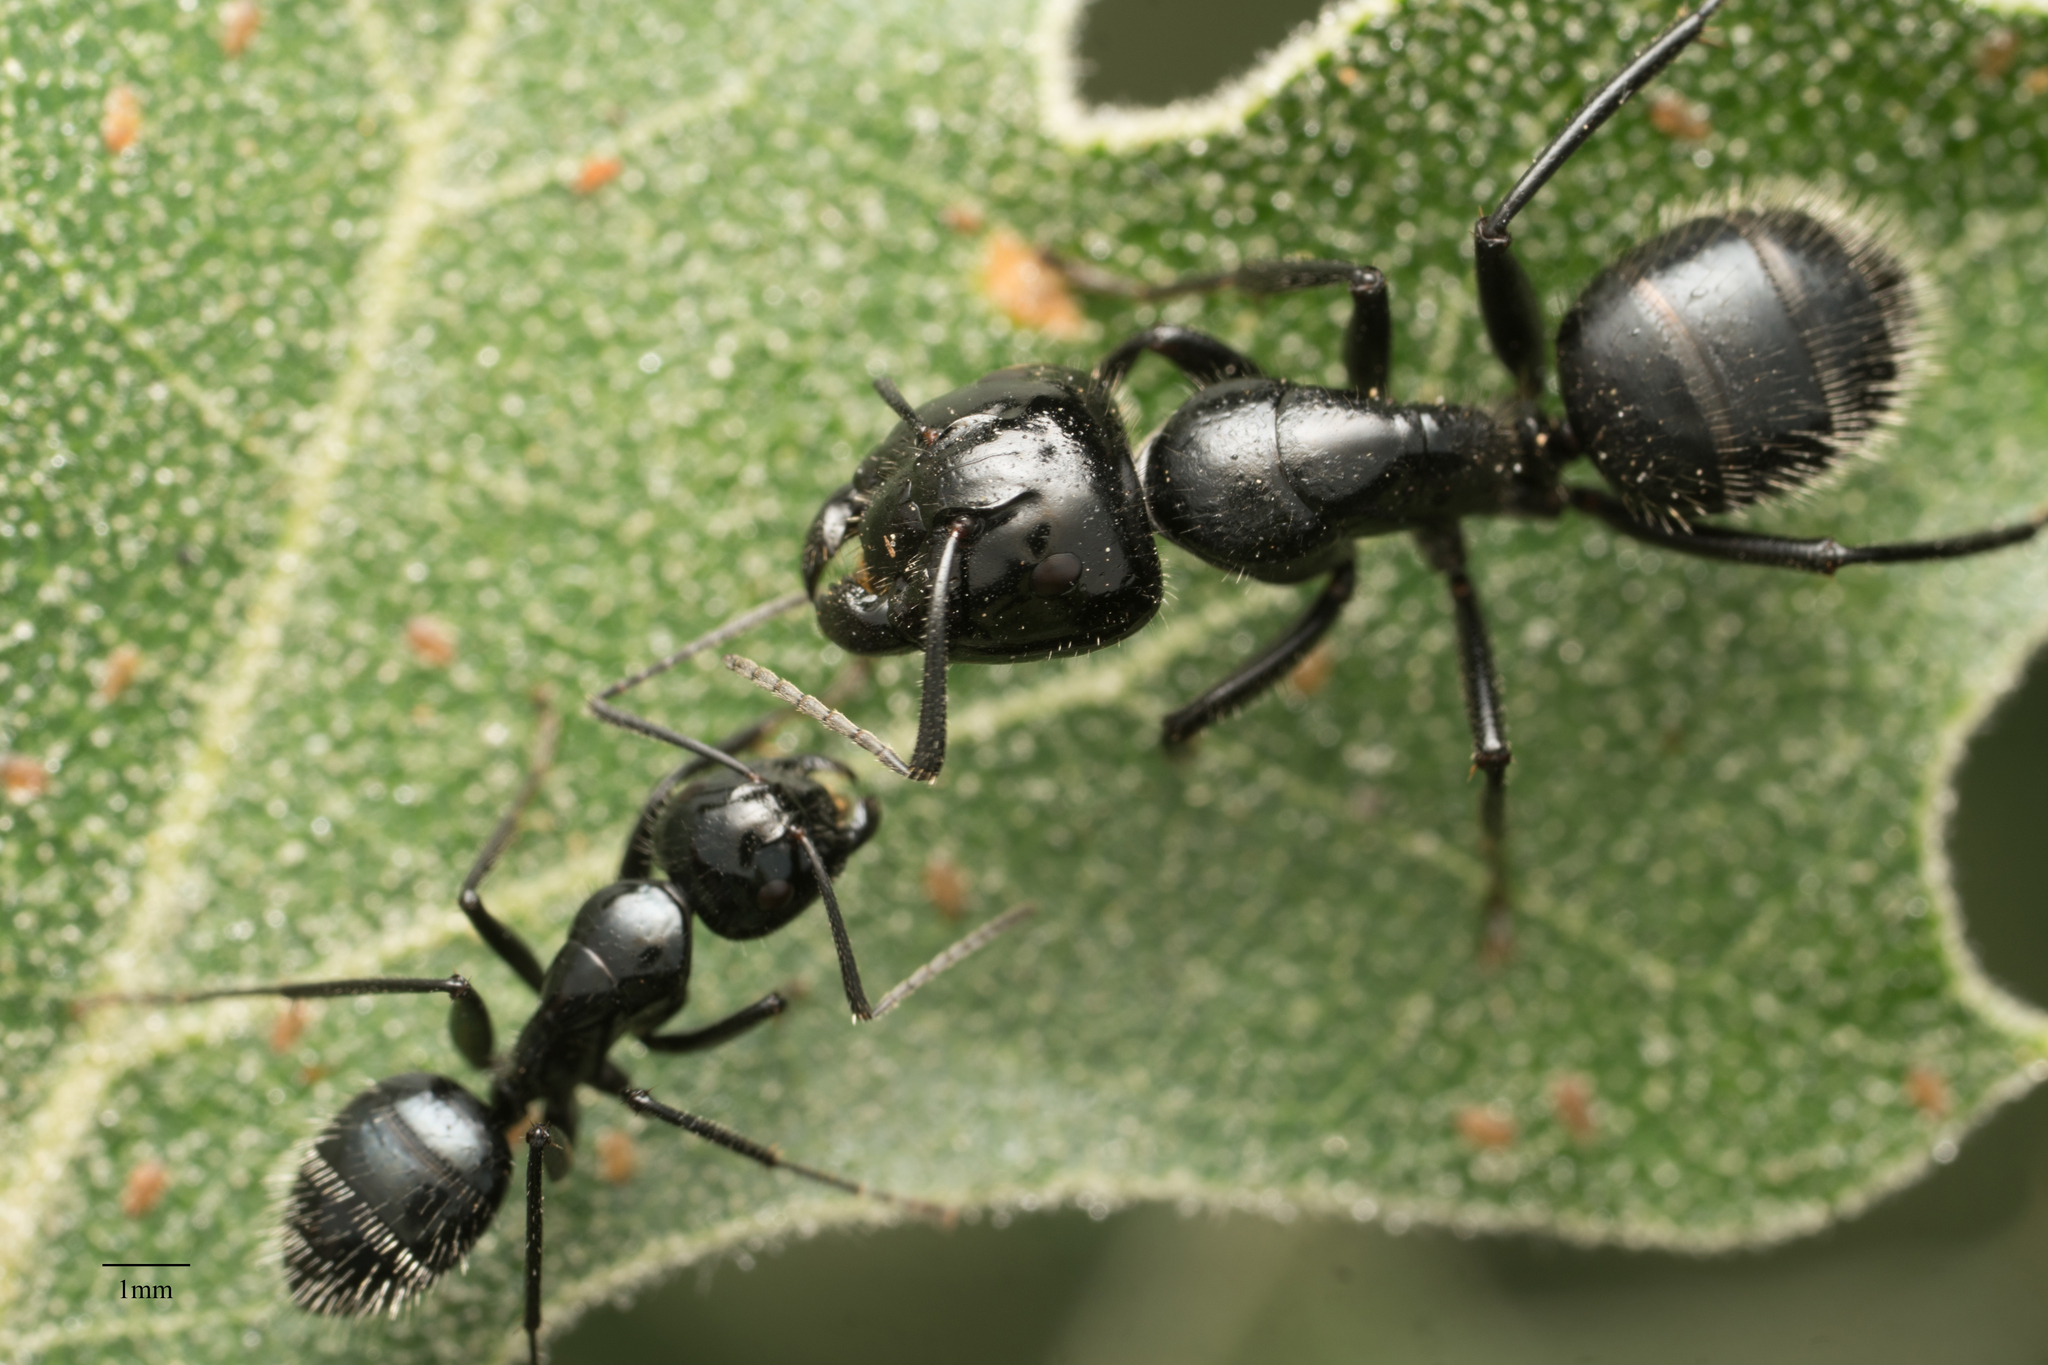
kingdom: Animalia
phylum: Arthropoda
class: Insecta
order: Hymenoptera
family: Formicidae
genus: Camponotus
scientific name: Camponotus
